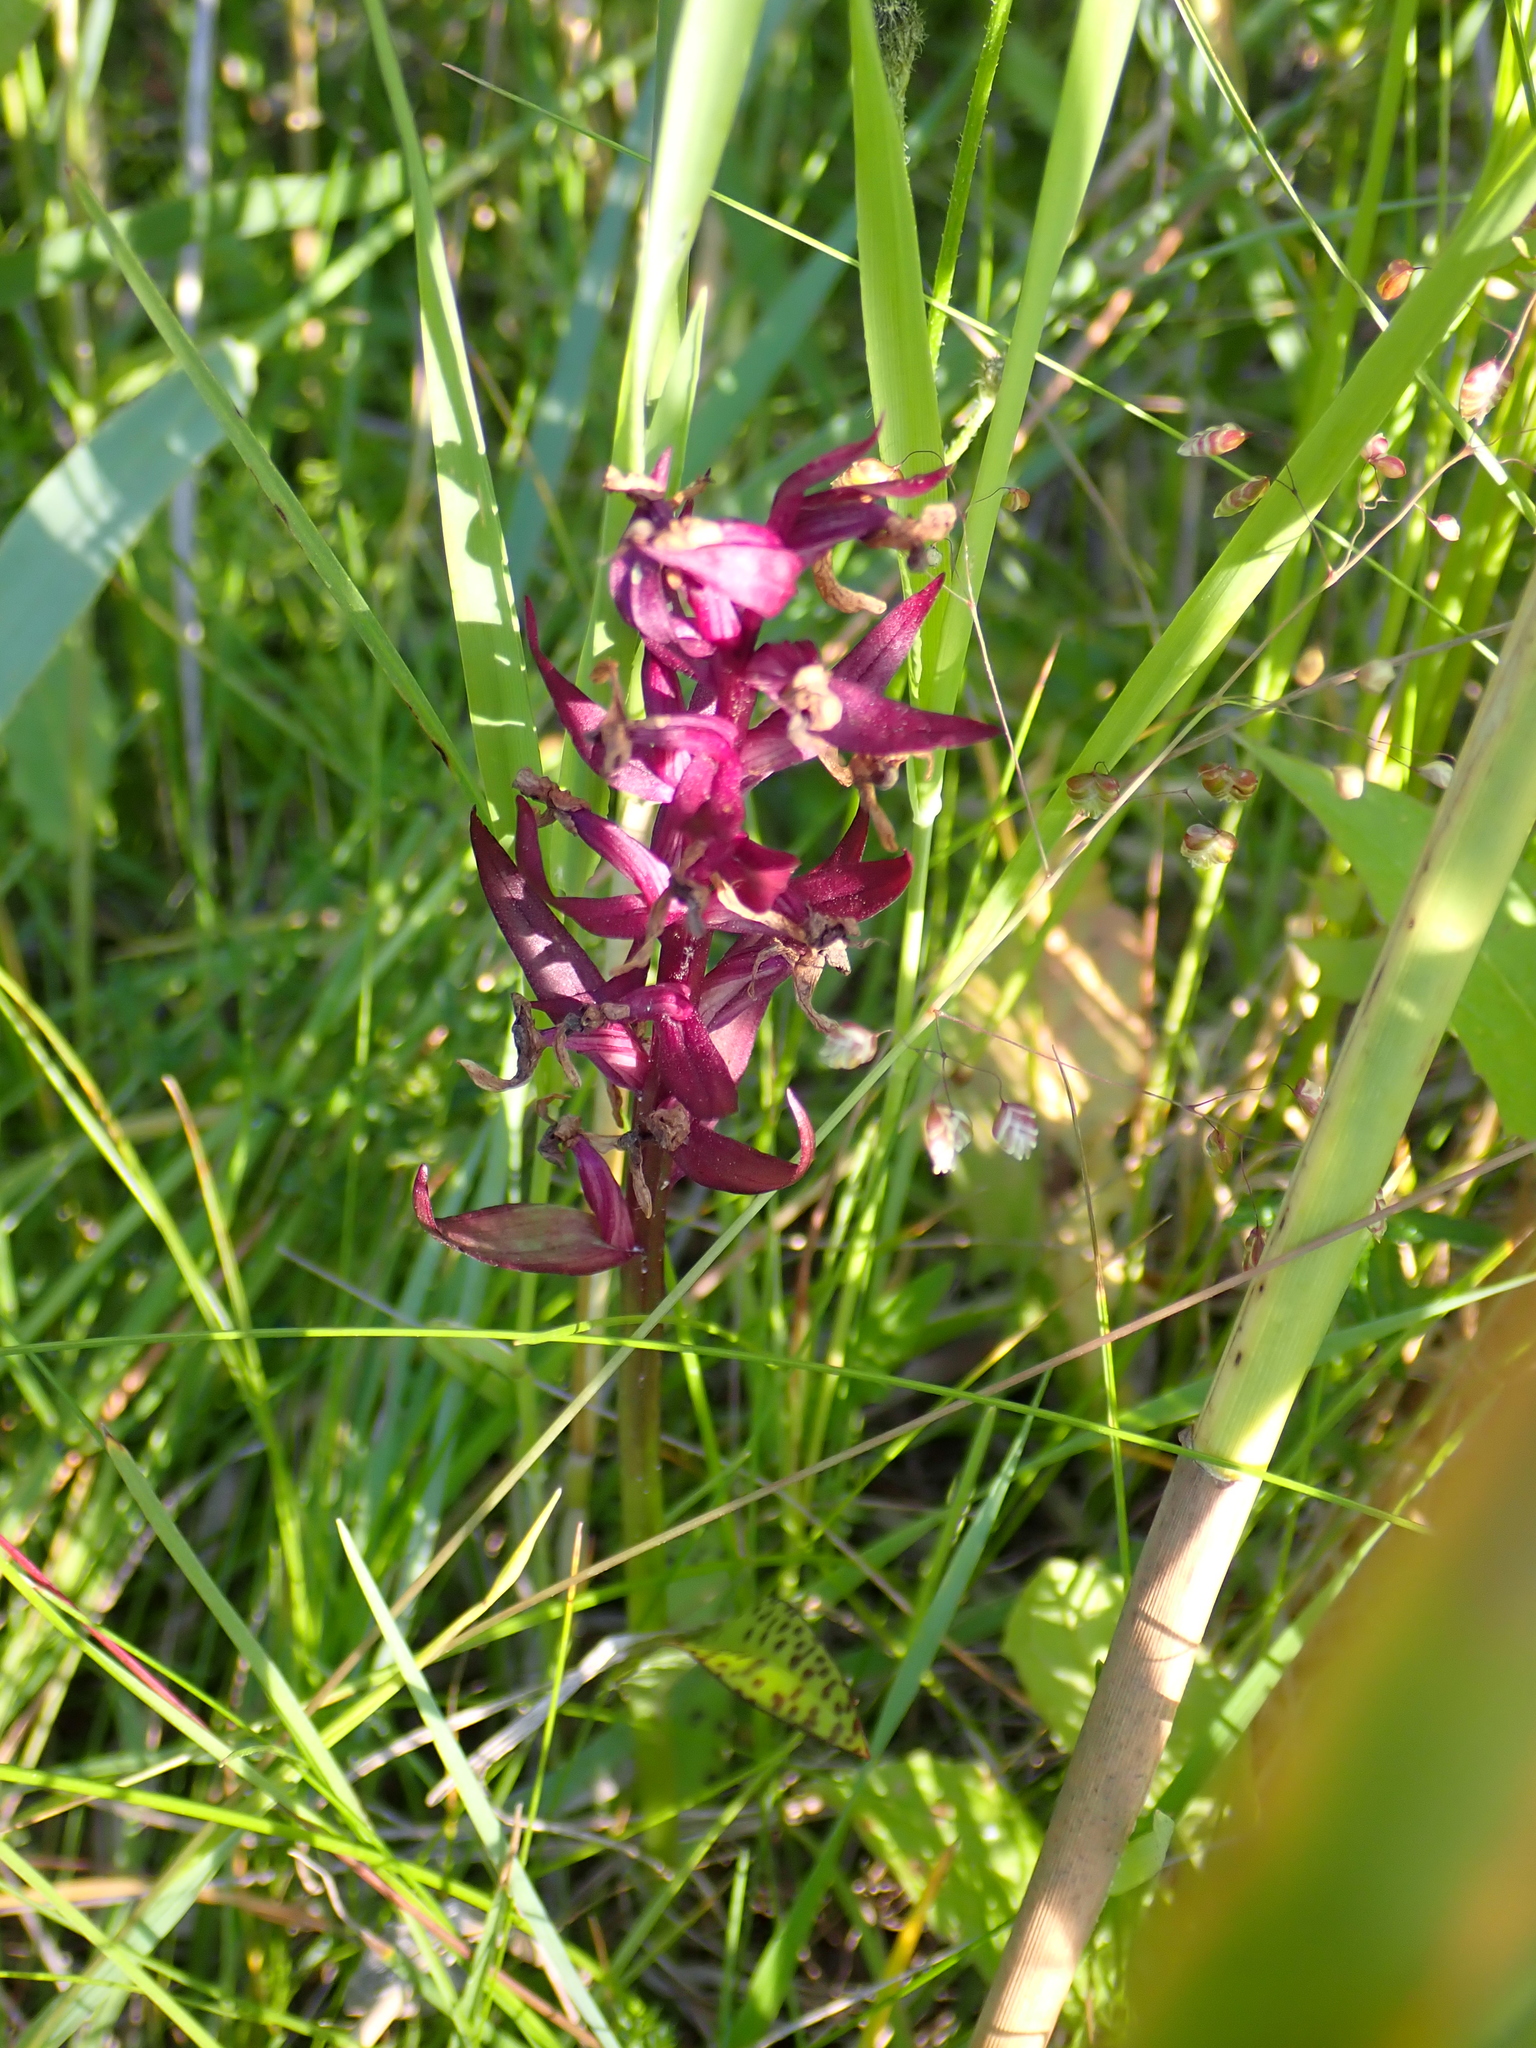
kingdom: Plantae
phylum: Tracheophyta
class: Liliopsida
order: Asparagales
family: Orchidaceae
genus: Dactylorhiza
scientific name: Dactylorhiza majalis
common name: Marsh orchid
